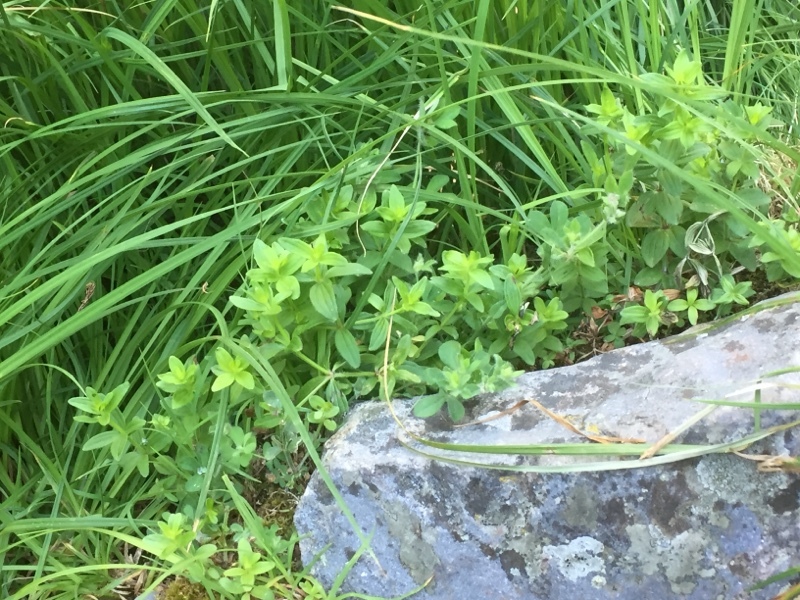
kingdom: Plantae
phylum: Tracheophyta
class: Magnoliopsida
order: Gentianales
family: Rubiaceae
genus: Galium
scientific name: Galium broterianum
